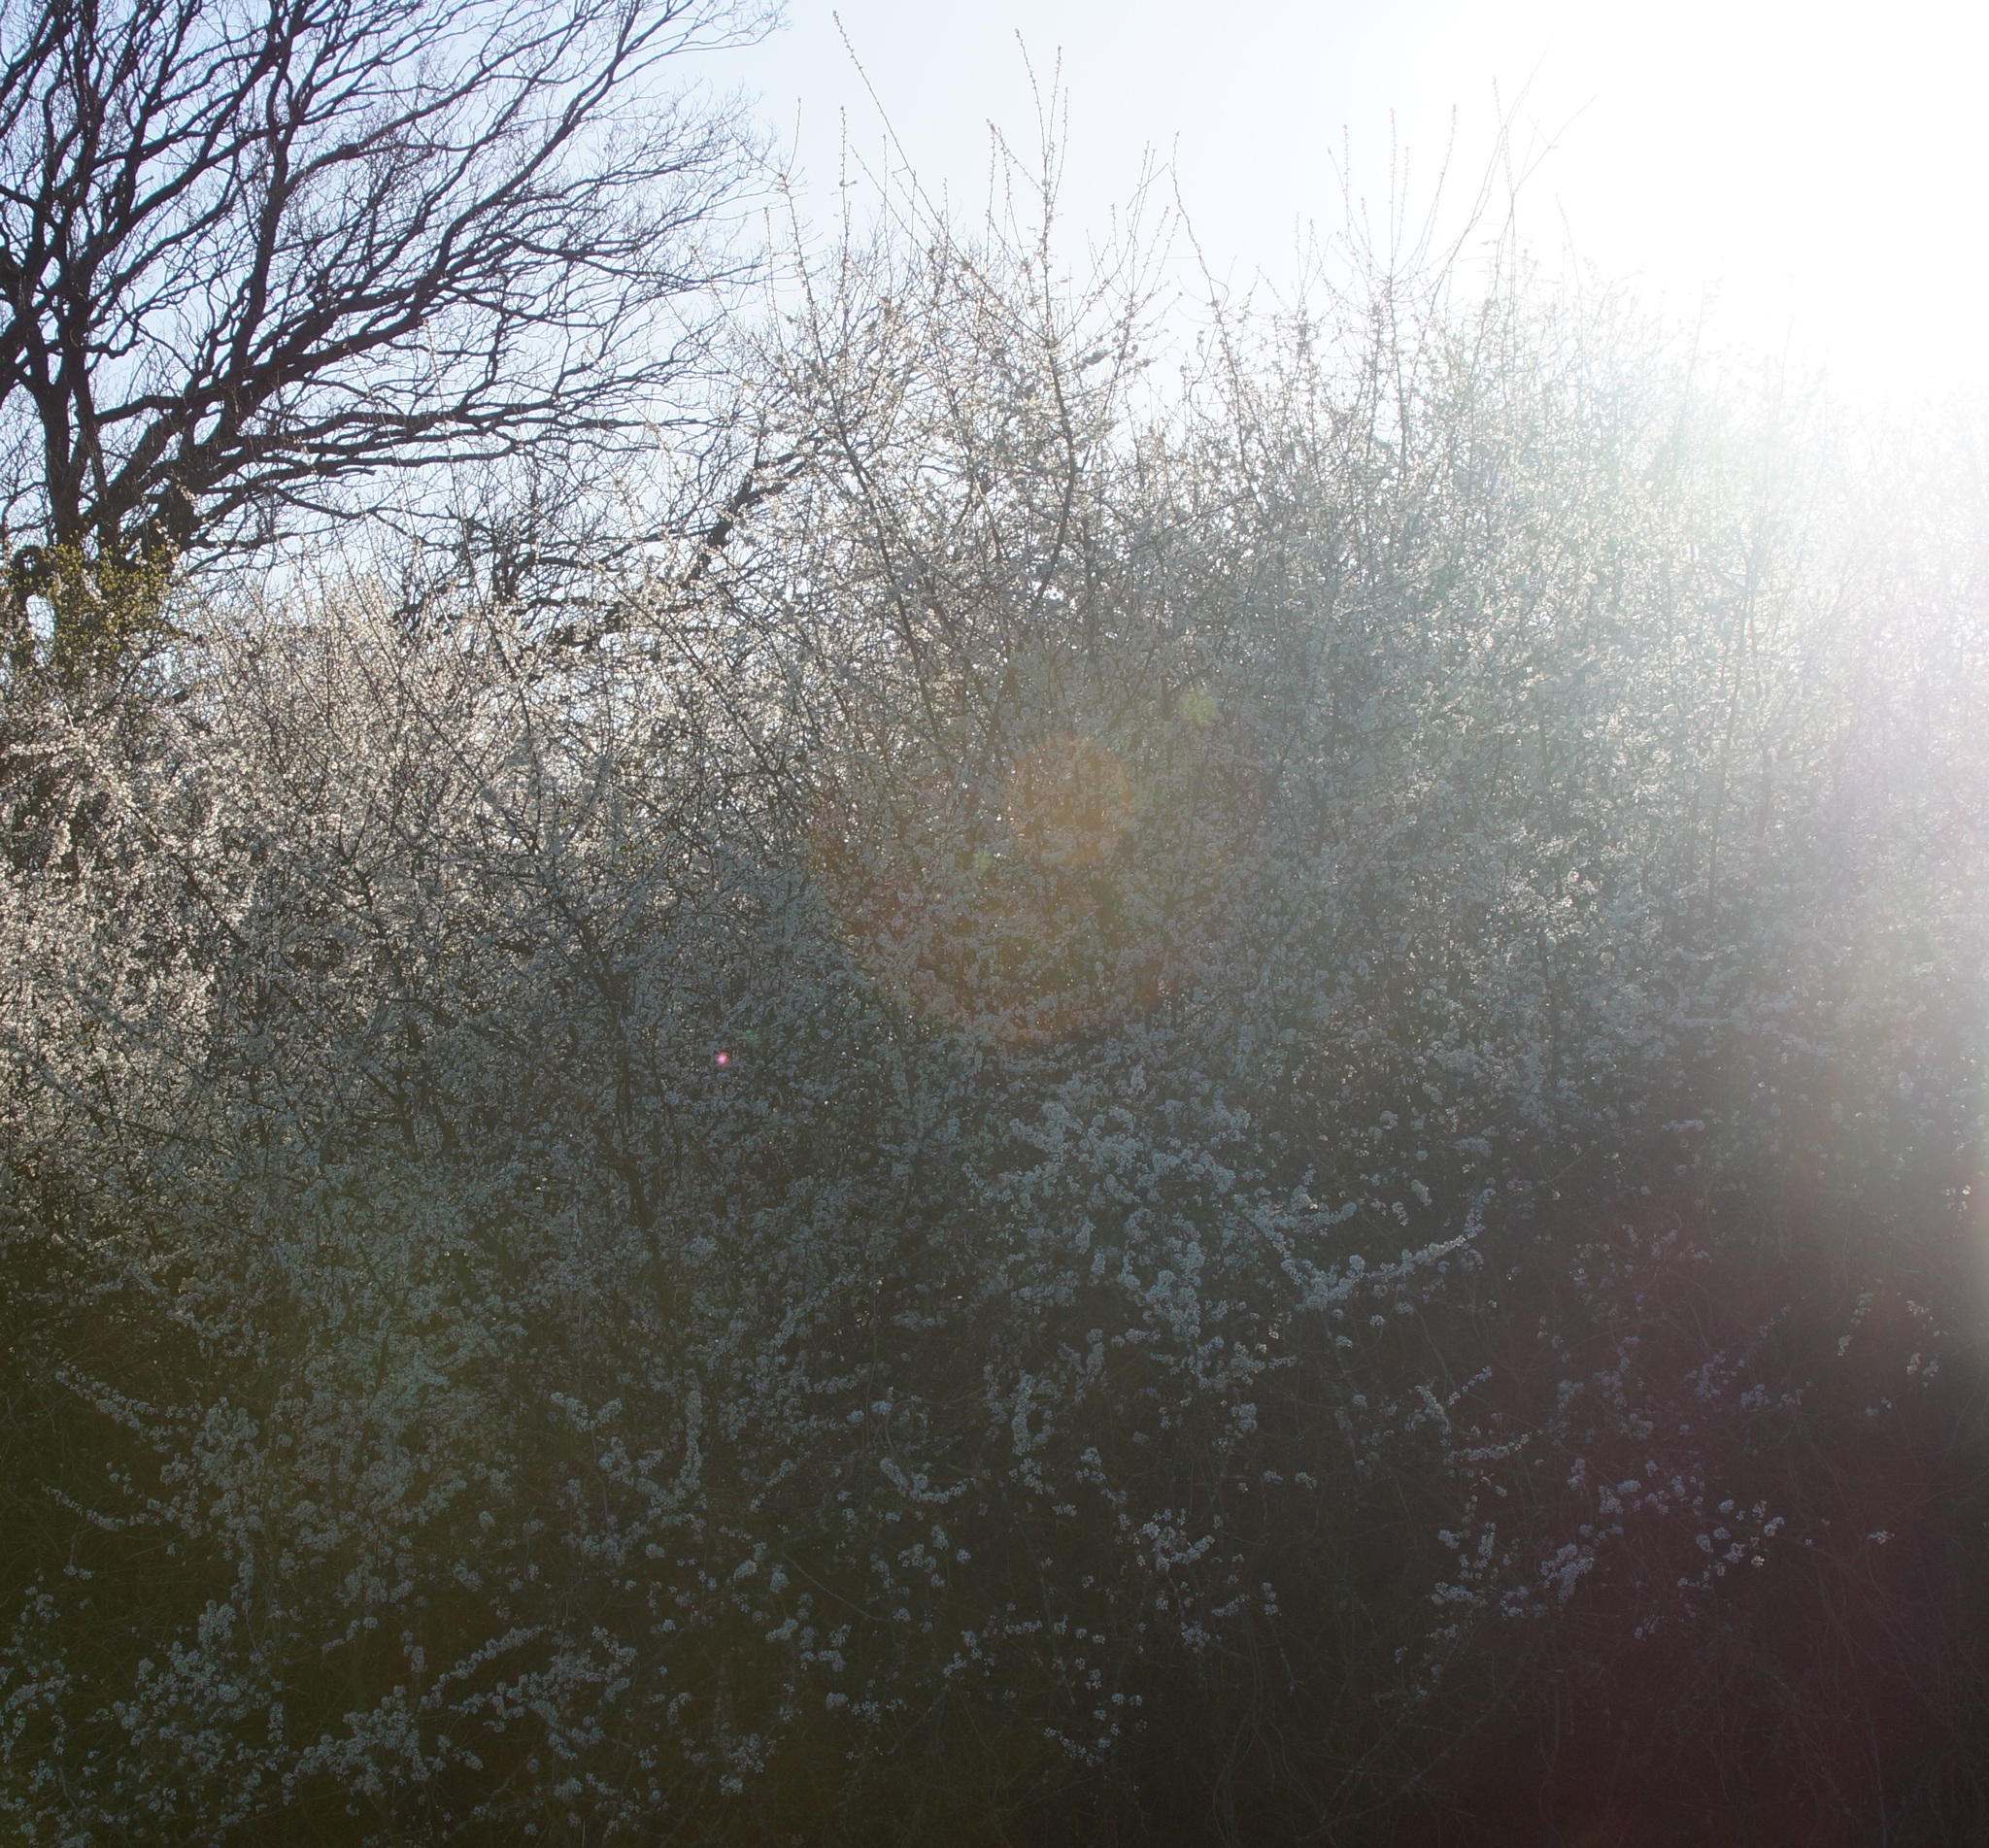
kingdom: Plantae
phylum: Tracheophyta
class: Magnoliopsida
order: Rosales
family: Rosaceae
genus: Prunus
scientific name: Prunus spinosa
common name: Blackthorn
